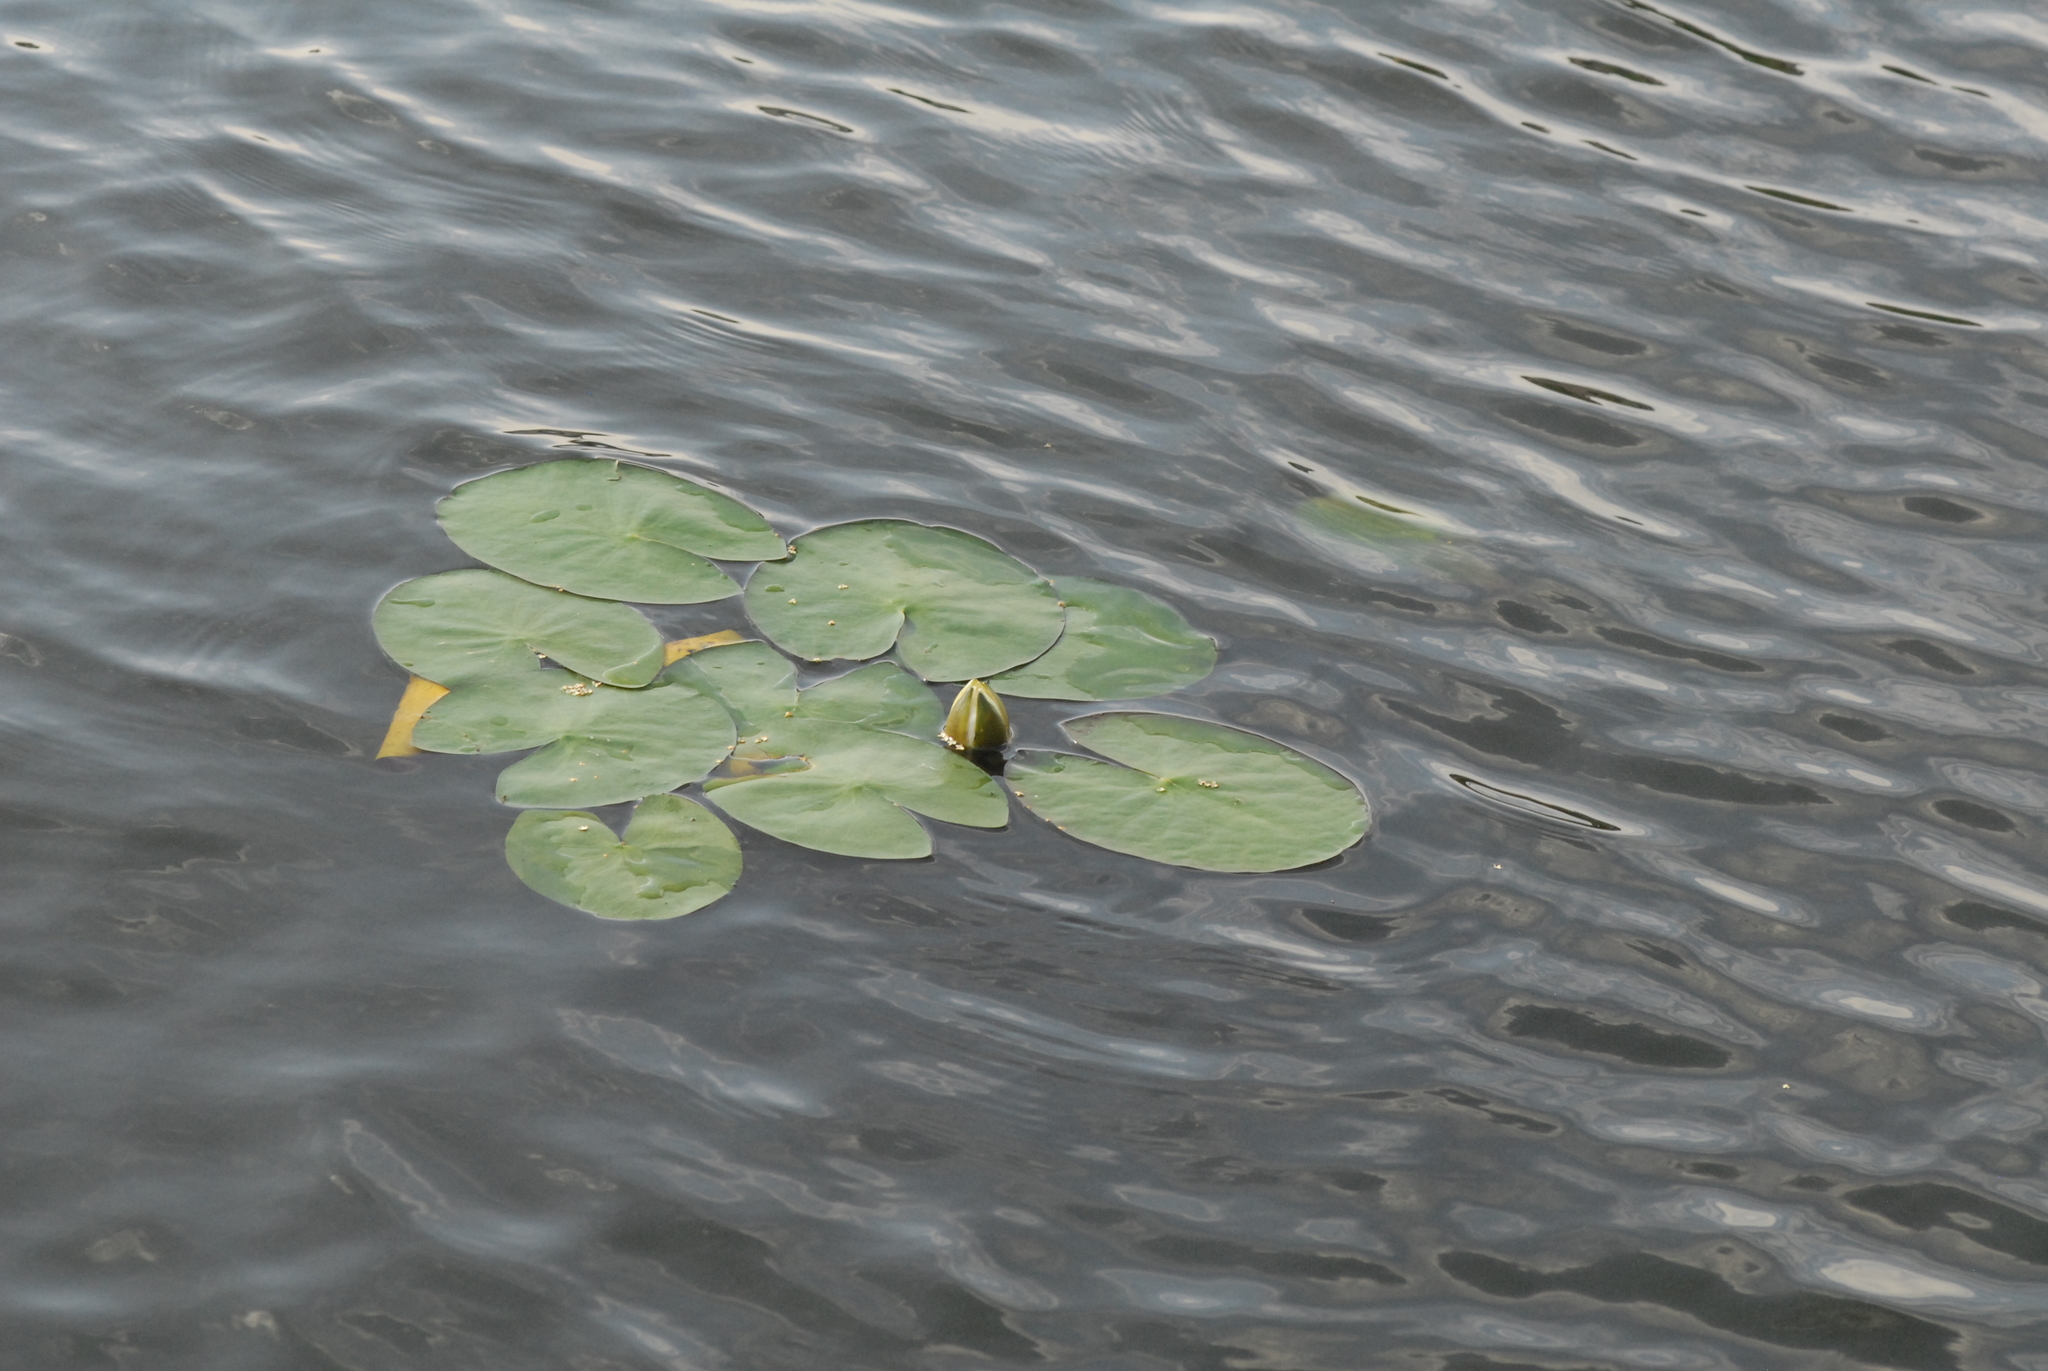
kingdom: Plantae
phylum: Tracheophyta
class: Magnoliopsida
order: Nymphaeales
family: Nymphaeaceae
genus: Nymphaea
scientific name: Nymphaea candida
